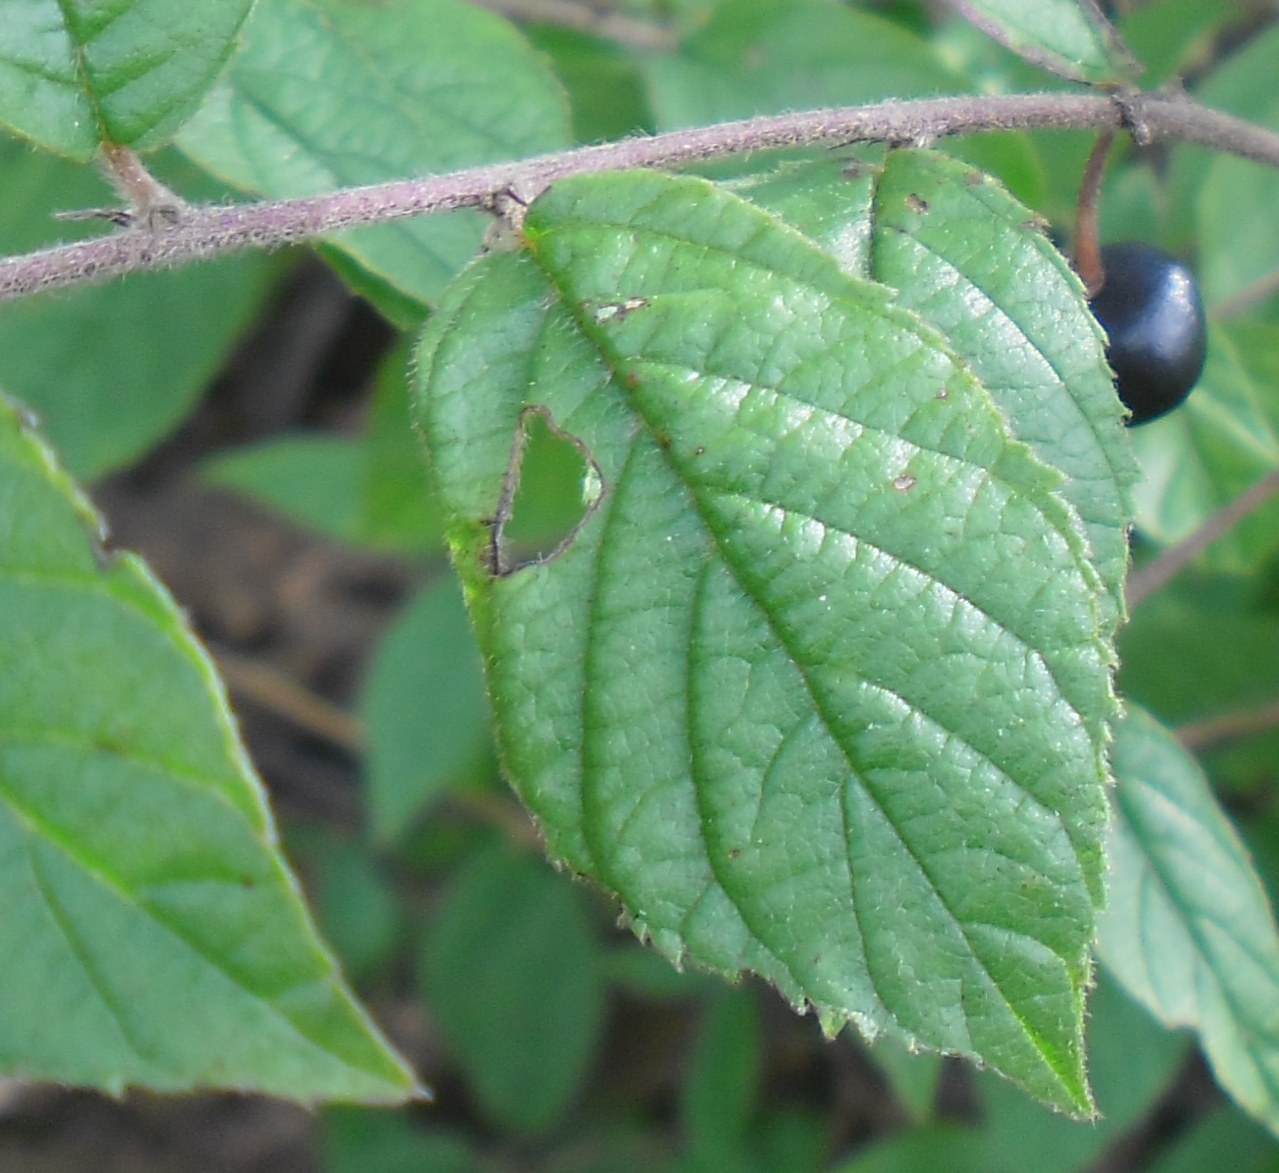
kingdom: Plantae
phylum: Tracheophyta
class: Magnoliopsida
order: Rosales
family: Rhamnaceae
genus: Rhamnus
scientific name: Rhamnus serrata
